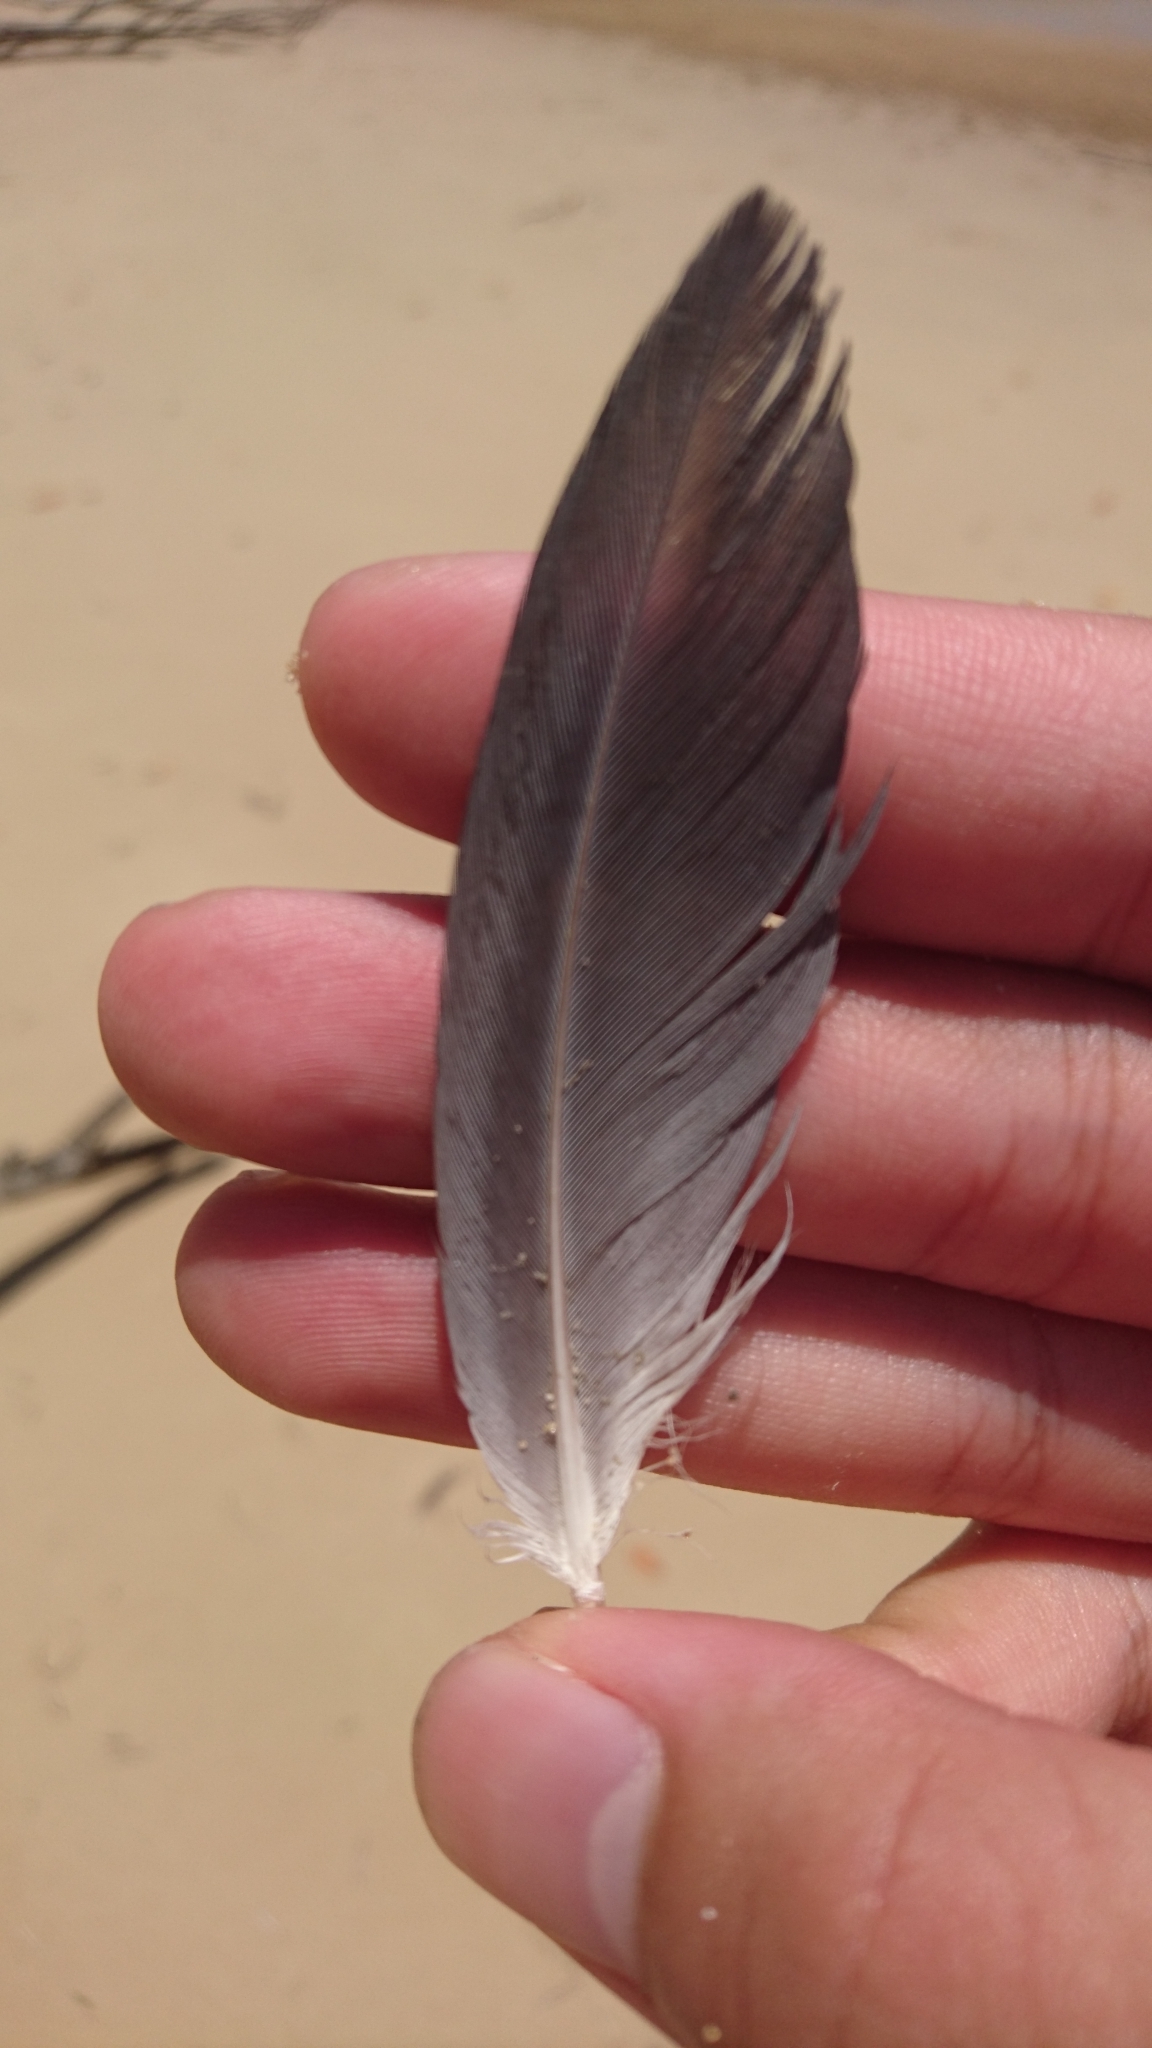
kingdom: Animalia
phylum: Chordata
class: Aves
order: Pelecaniformes
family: Ardeidae
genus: Egretta
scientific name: Egretta novaehollandiae
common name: White-faced heron
